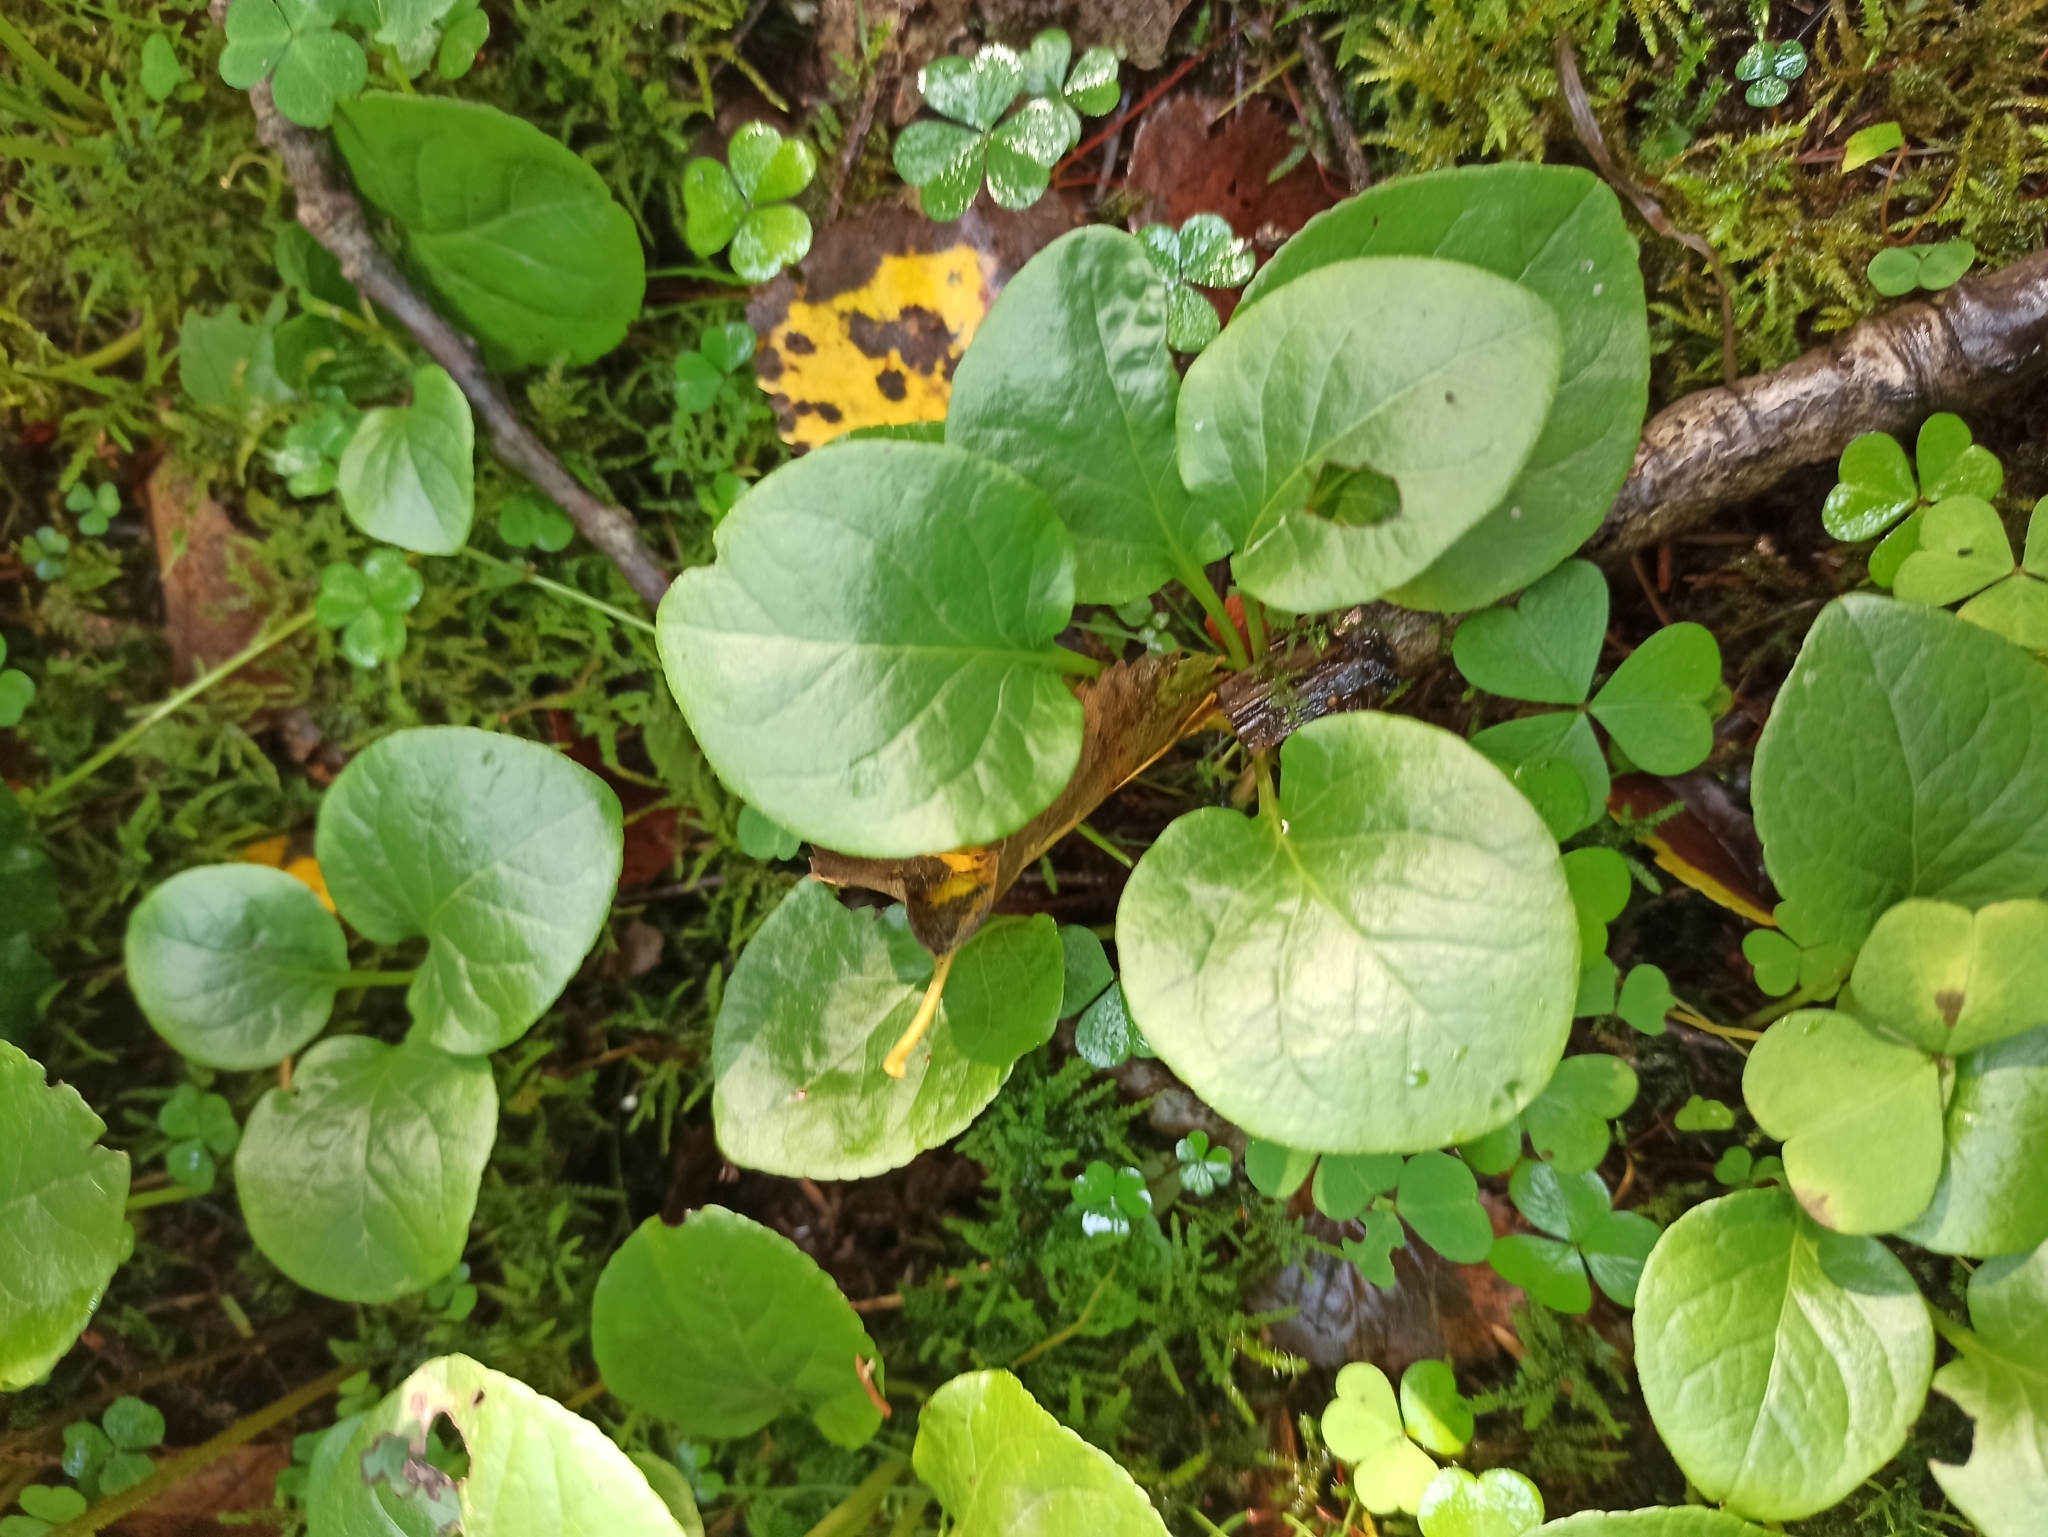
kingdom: Plantae
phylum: Tracheophyta
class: Magnoliopsida
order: Ericales
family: Ericaceae
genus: Pyrola
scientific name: Pyrola
